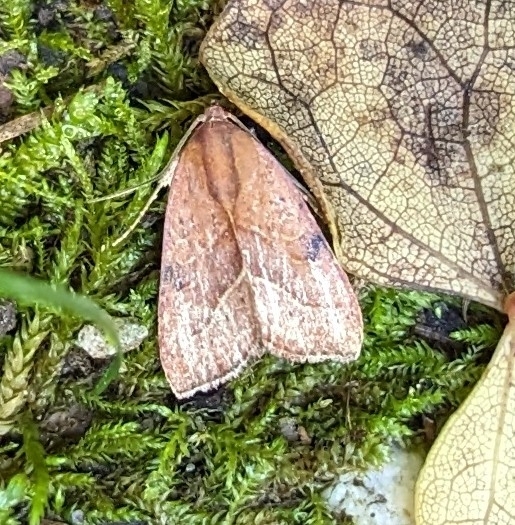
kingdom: Animalia
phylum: Arthropoda
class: Insecta
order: Lepidoptera
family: Noctuidae
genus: Galgula
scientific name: Galgula partita
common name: Wedgeling
